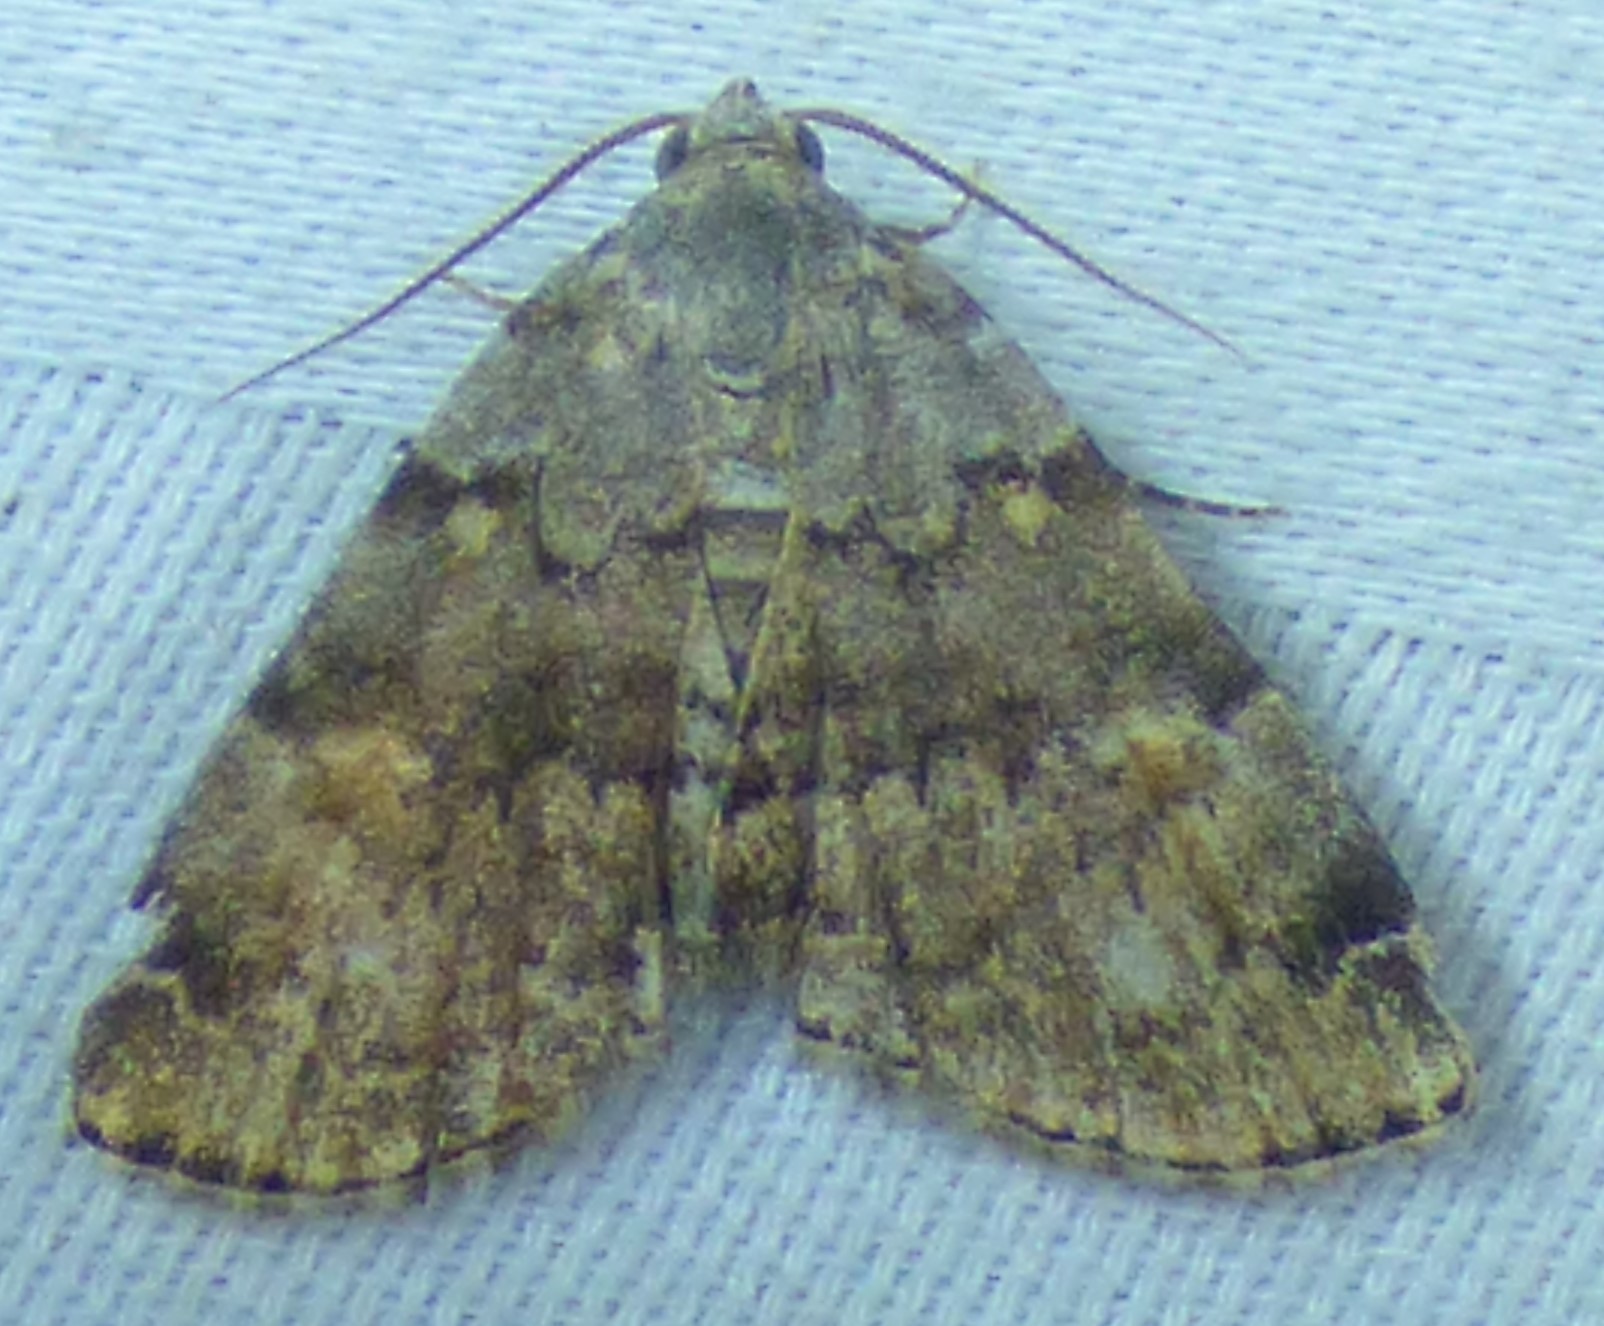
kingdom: Animalia
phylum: Arthropoda
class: Insecta
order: Lepidoptera
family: Erebidae
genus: Idia
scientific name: Idia americalis
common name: American idia moth
